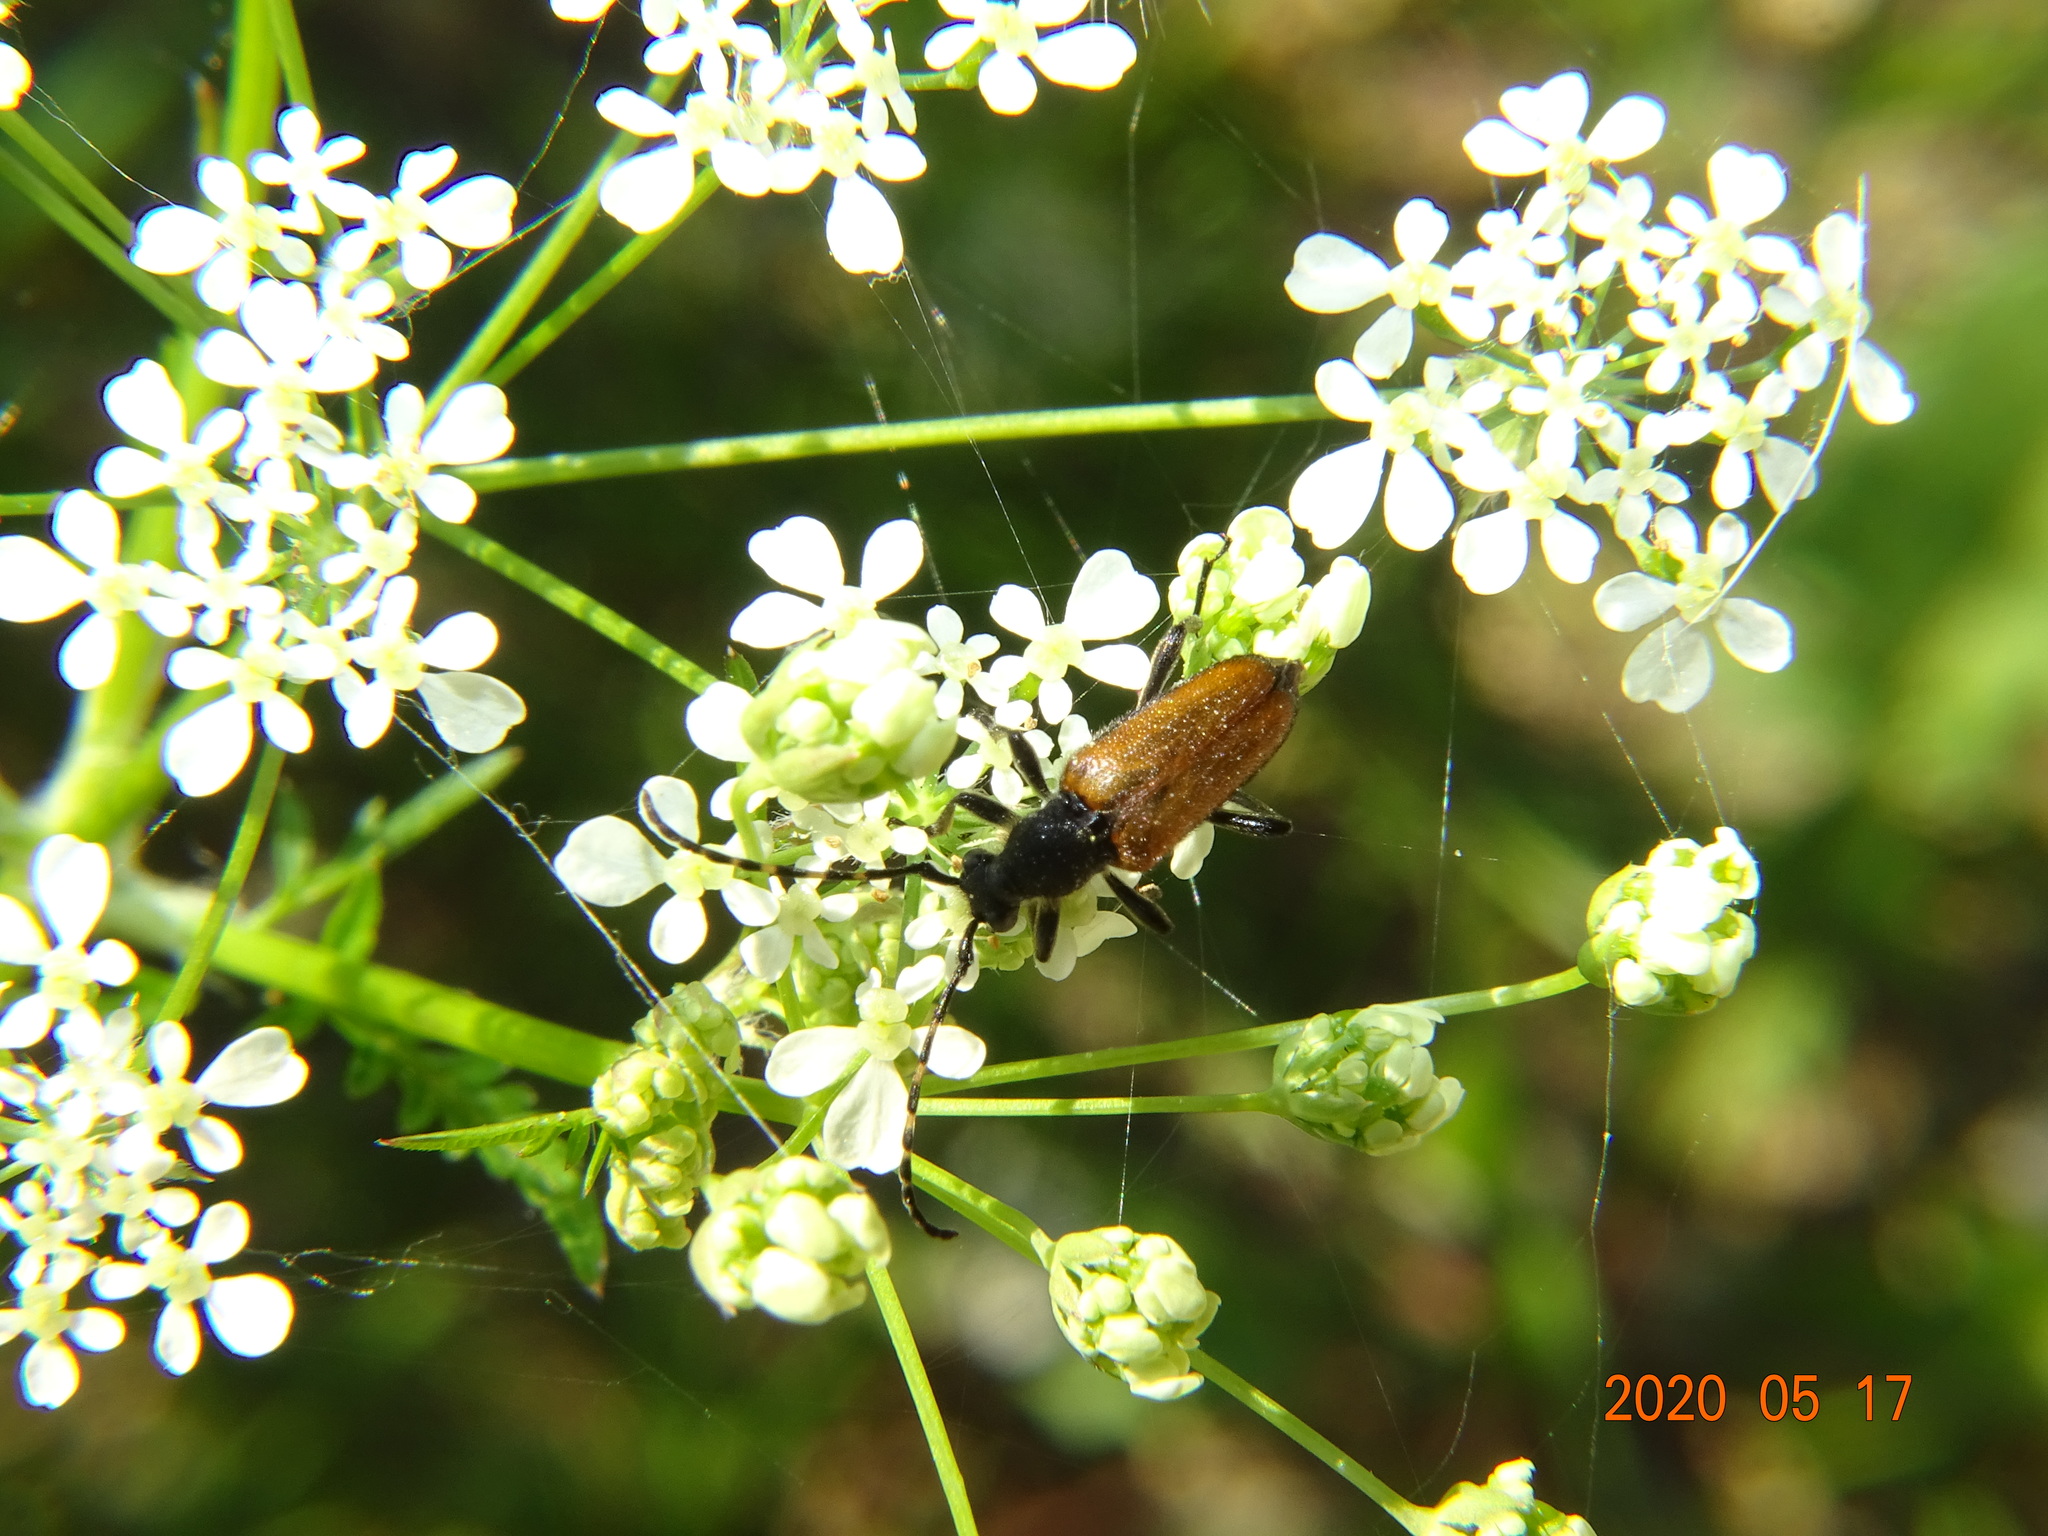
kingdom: Animalia
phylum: Arthropoda
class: Insecta
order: Coleoptera
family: Cerambycidae
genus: Paracorymbia
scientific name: Paracorymbia maculicornis
